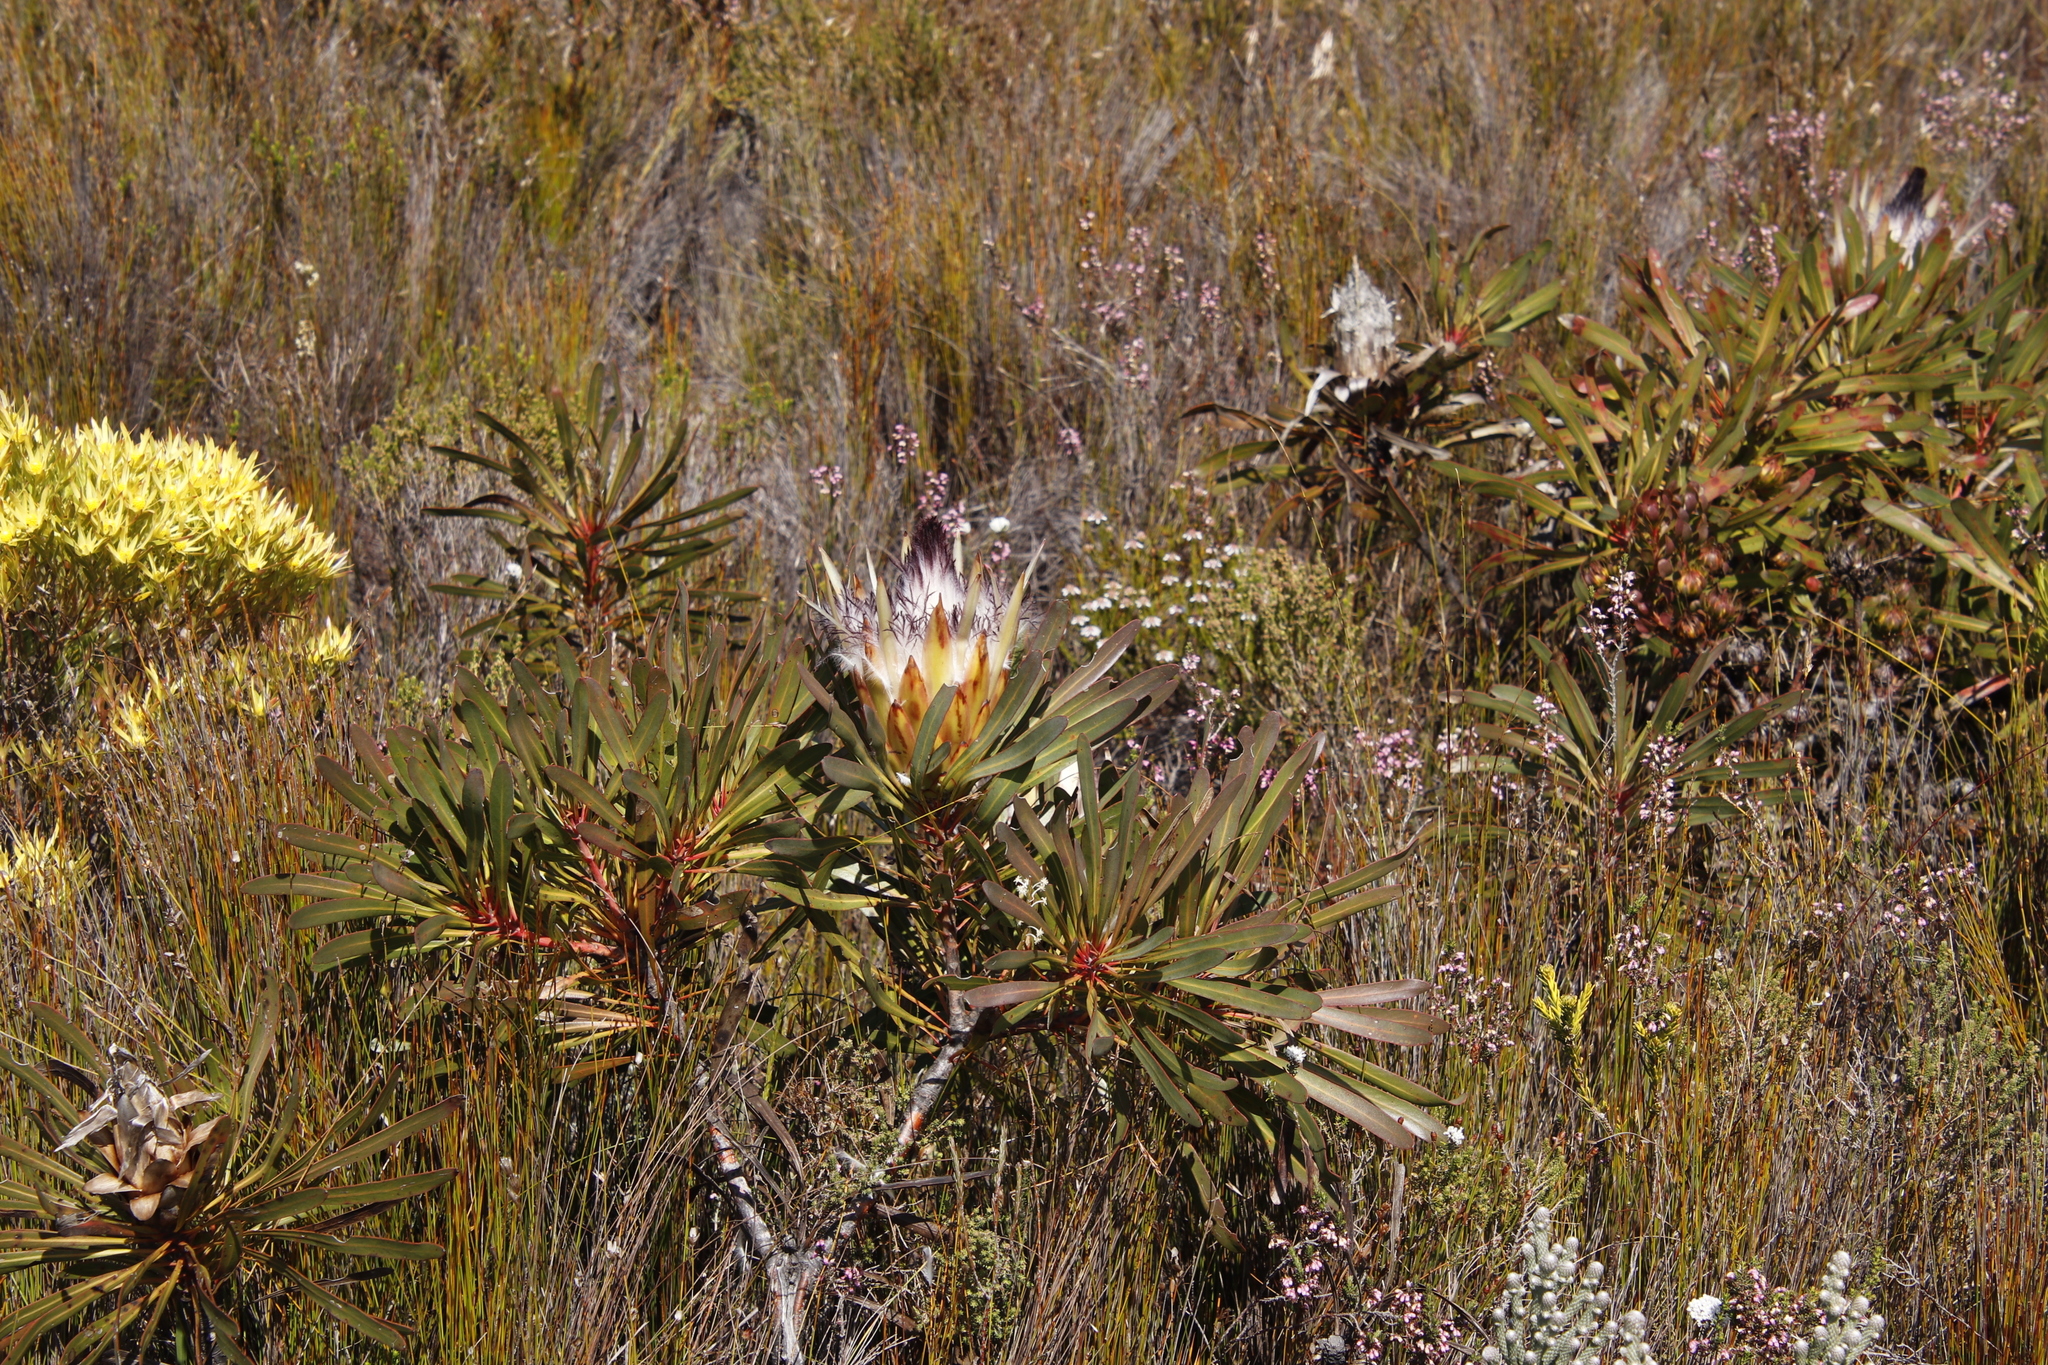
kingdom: Plantae
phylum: Tracheophyta
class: Magnoliopsida
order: Proteales
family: Proteaceae
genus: Protea
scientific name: Protea longifolia
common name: Long-leaf sugarbush
